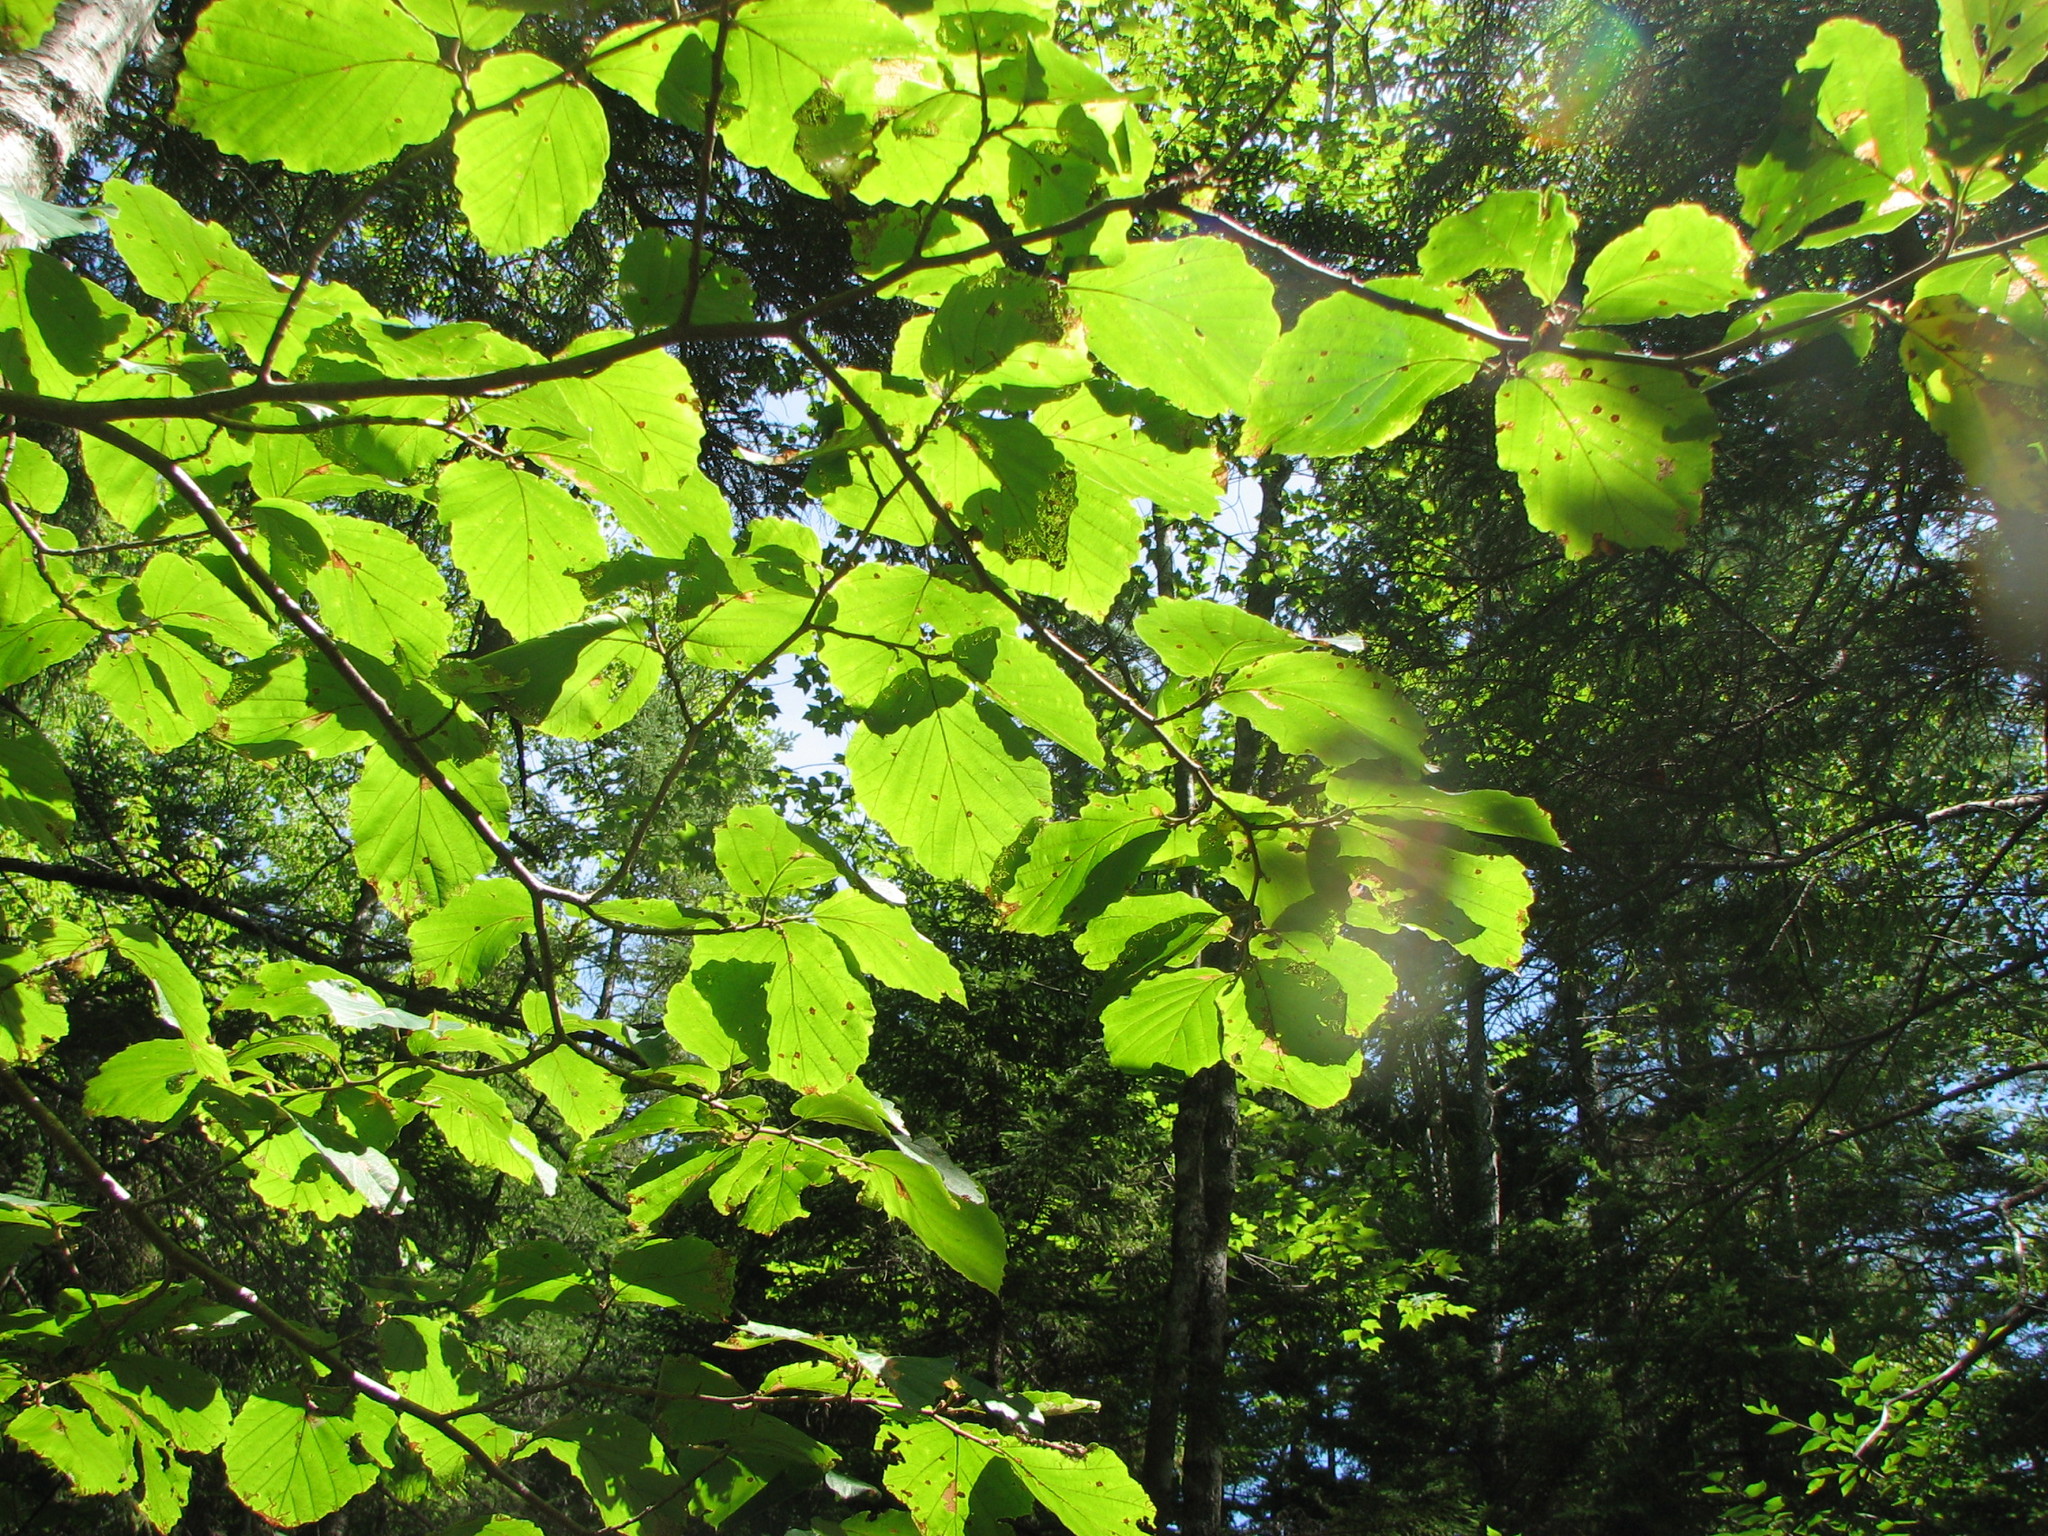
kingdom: Plantae
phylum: Tracheophyta
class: Magnoliopsida
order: Saxifragales
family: Hamamelidaceae
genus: Hamamelis
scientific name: Hamamelis virginiana
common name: Witch-hazel
